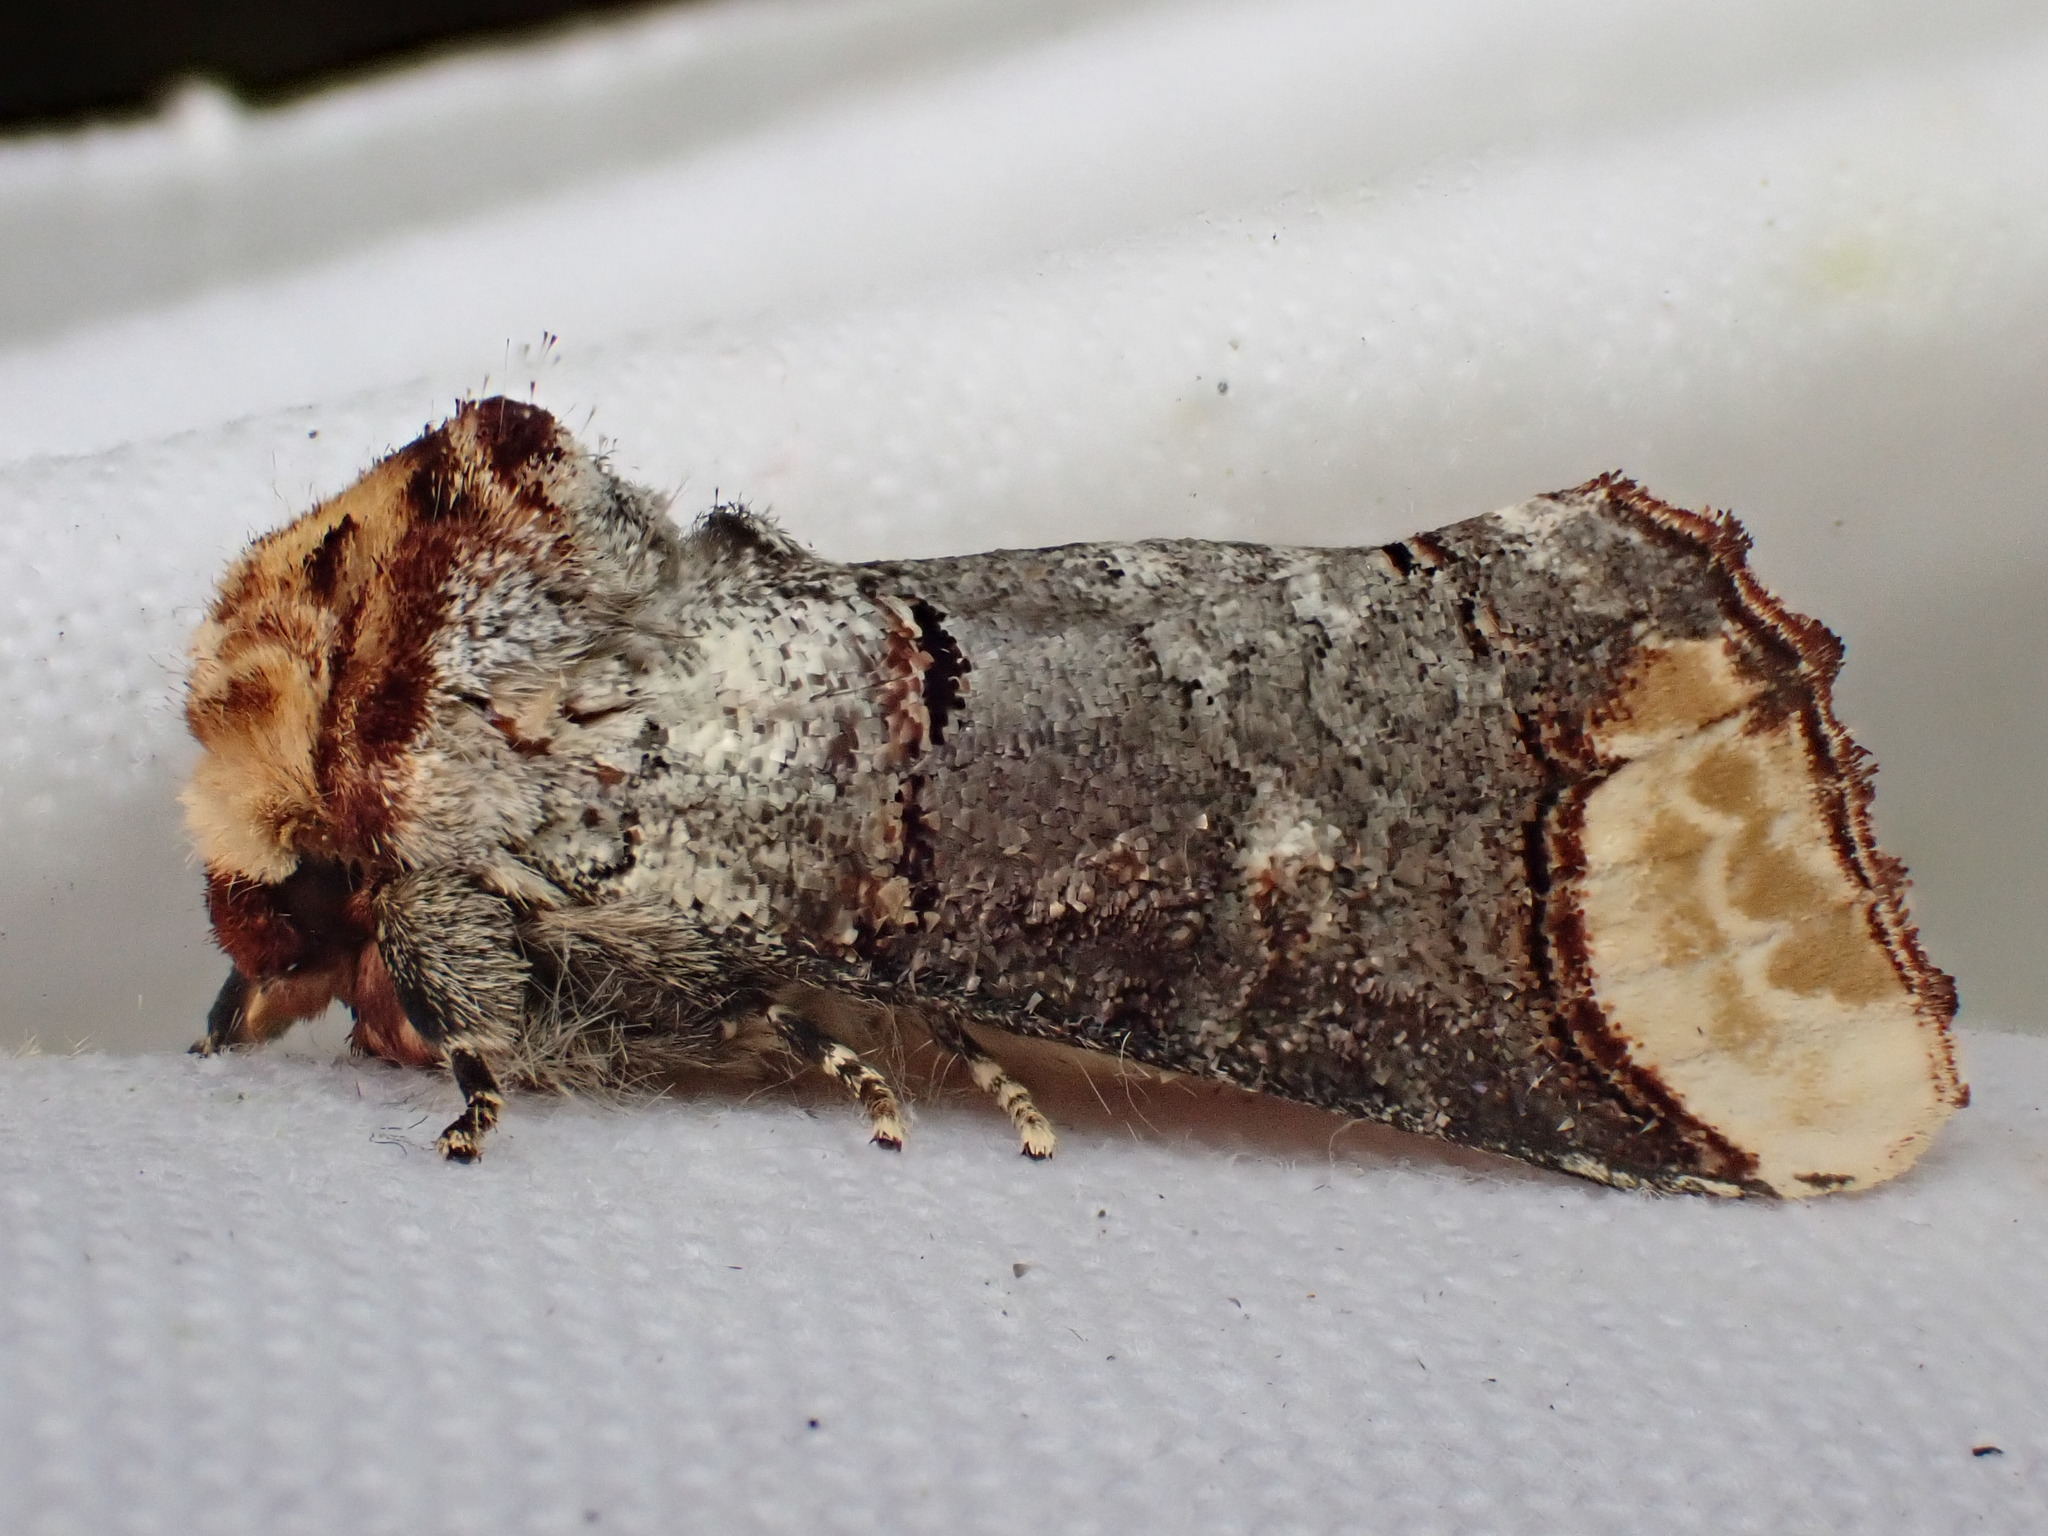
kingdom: Animalia
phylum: Arthropoda
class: Insecta
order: Lepidoptera
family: Notodontidae
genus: Phalera
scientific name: Phalera bucephala
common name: Buff-tip
